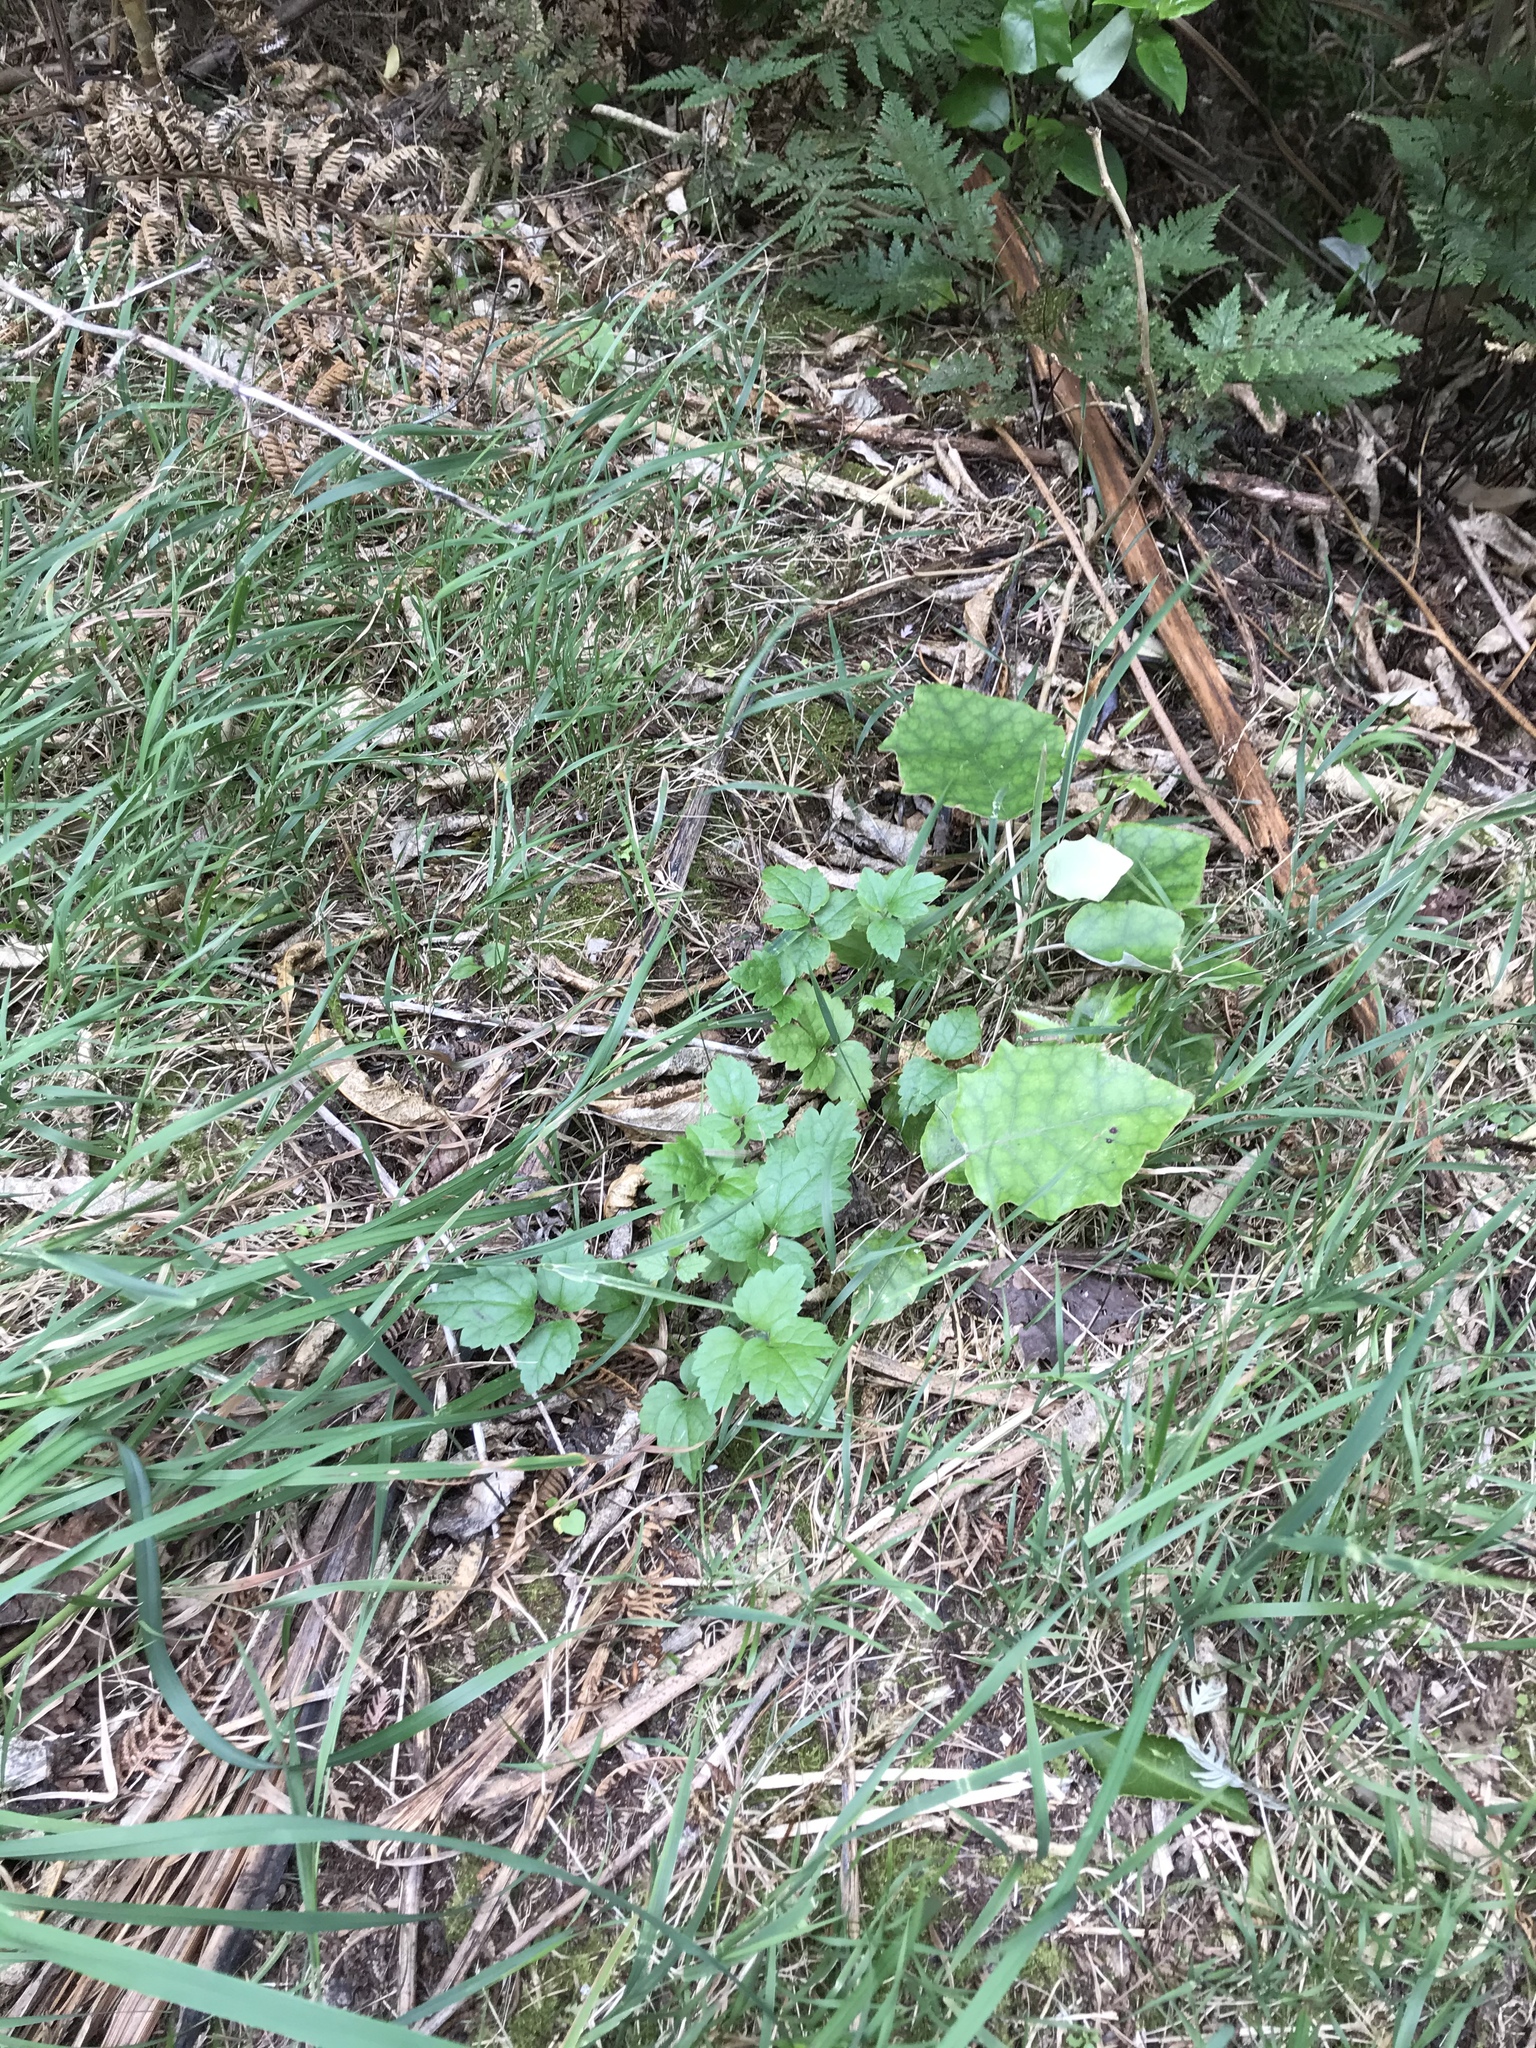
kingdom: Plantae
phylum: Tracheophyta
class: Magnoliopsida
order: Ranunculales
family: Ranunculaceae
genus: Clematis
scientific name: Clematis vitalba
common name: Evergreen clematis
